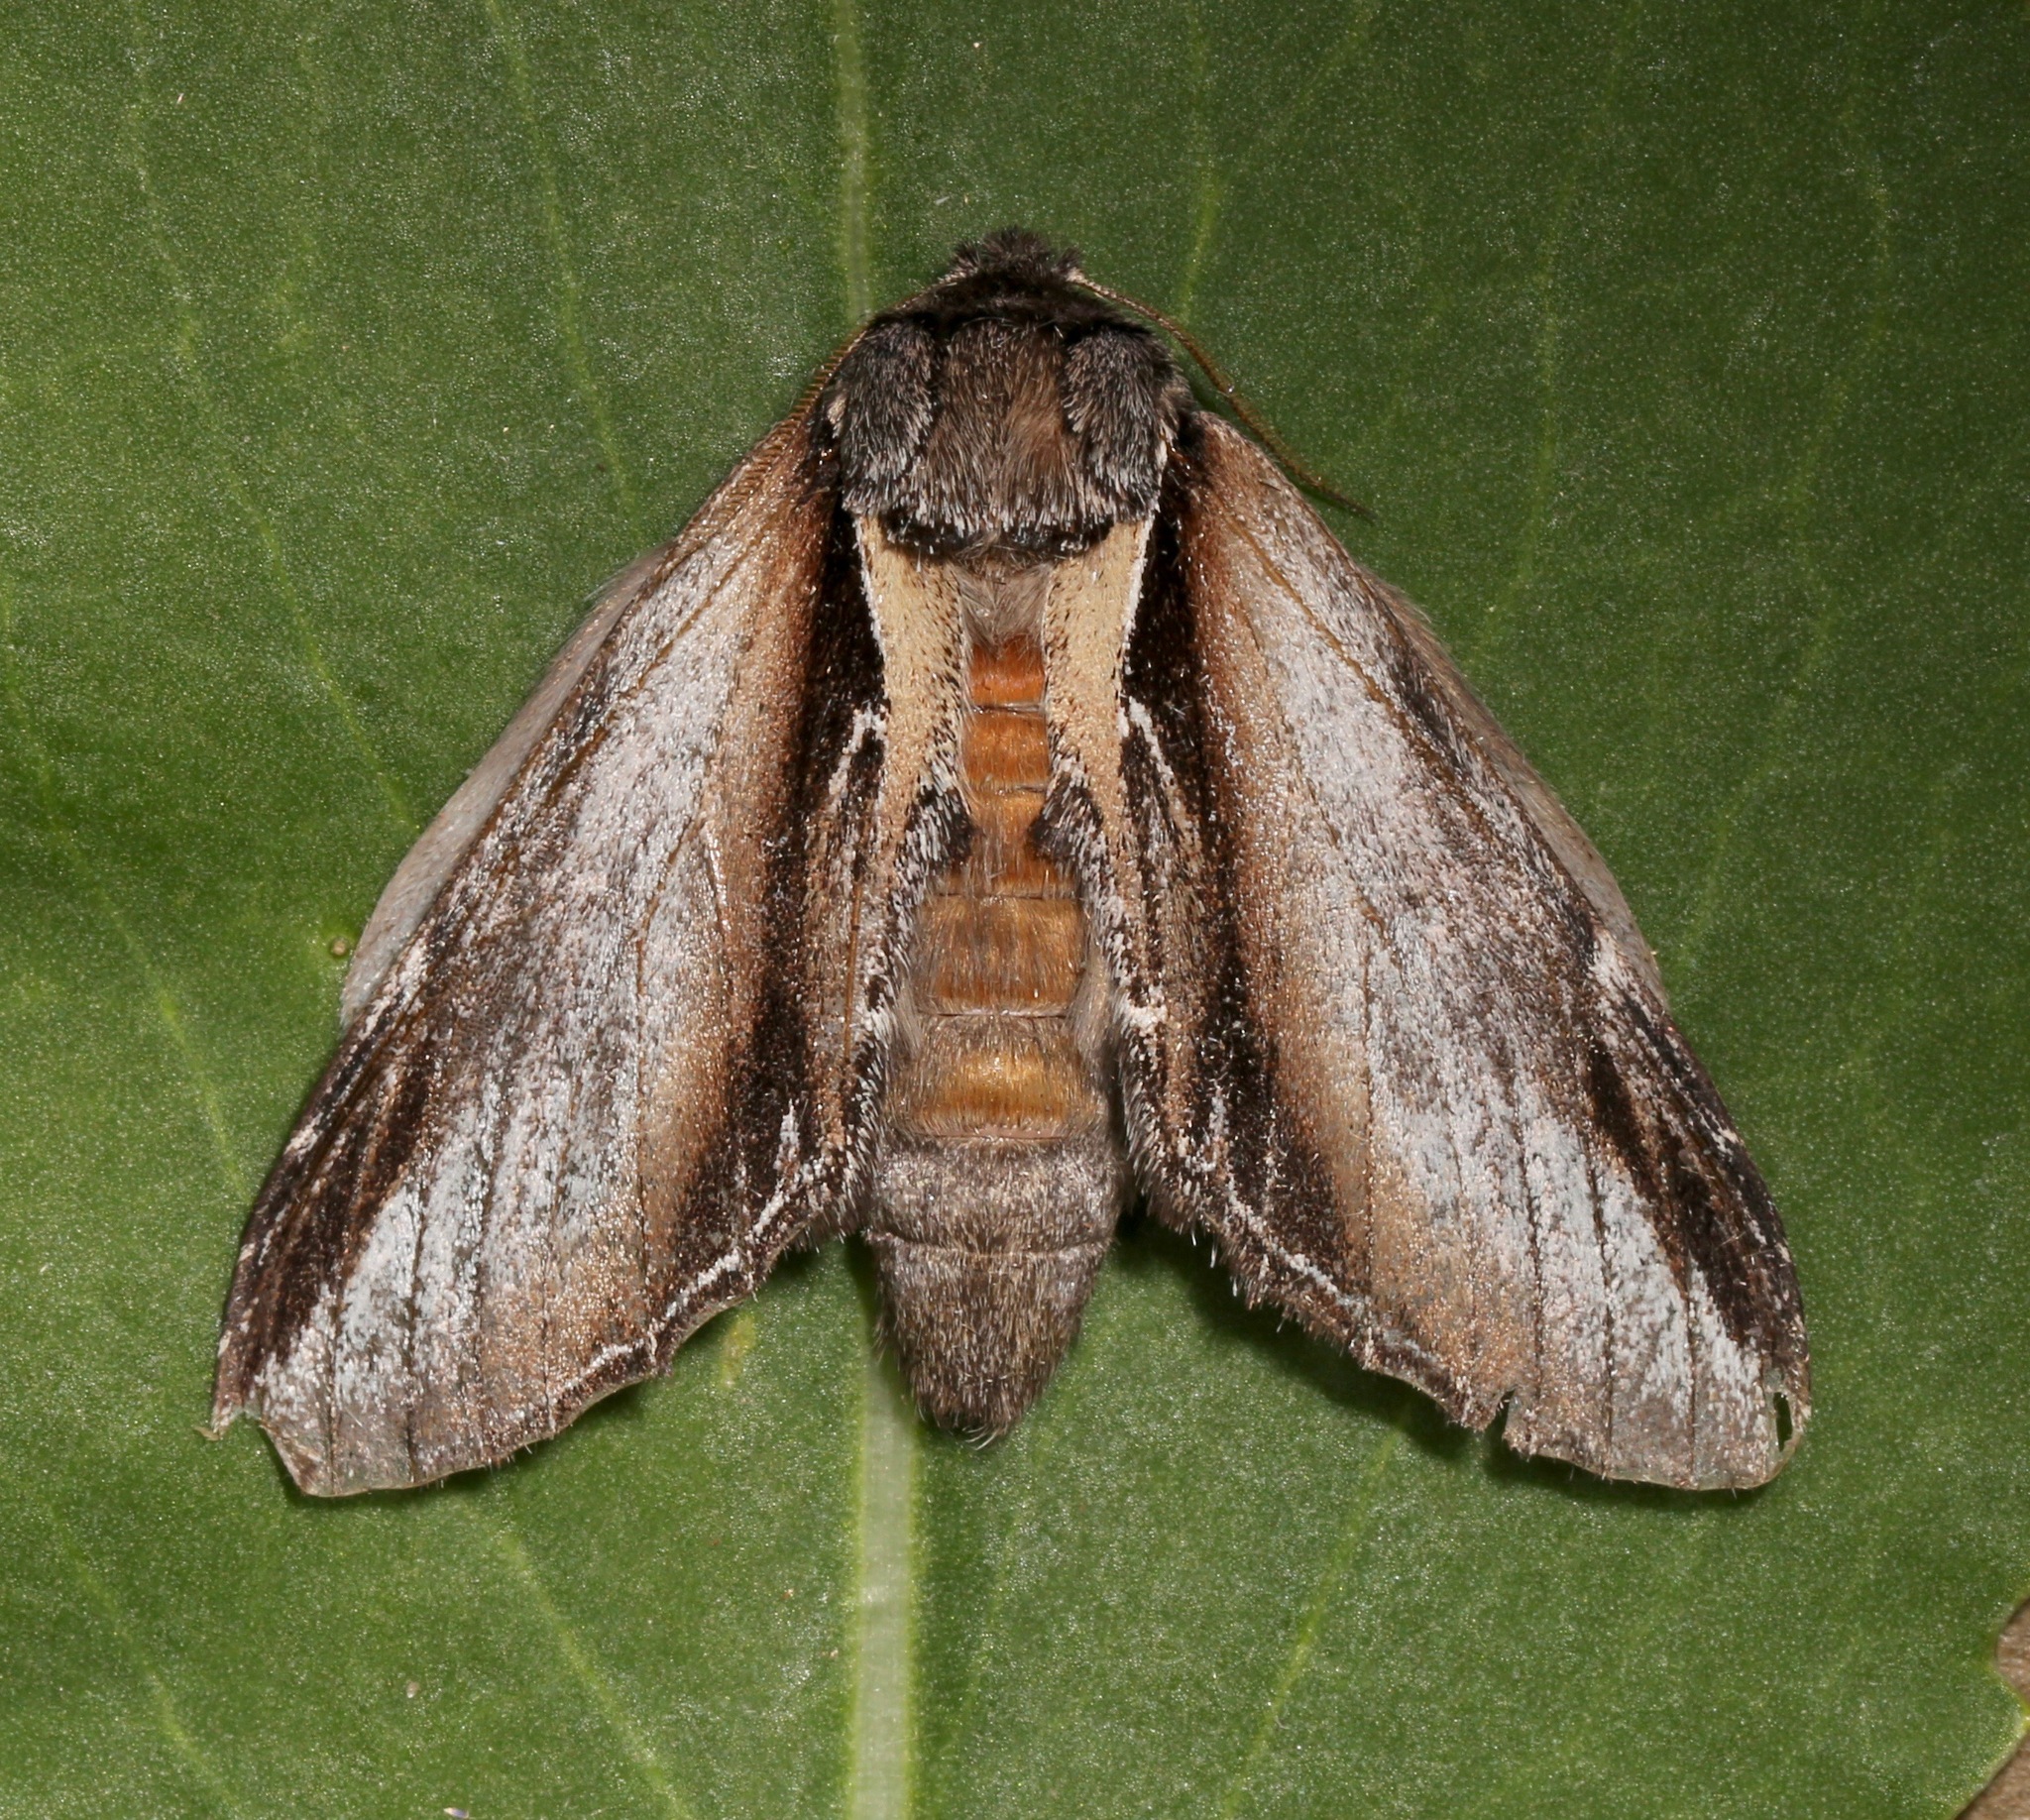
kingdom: Animalia
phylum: Arthropoda
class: Insecta
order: Lepidoptera
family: Notodontidae
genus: Pheosia
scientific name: Pheosia rimosa
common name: Black-rimmed prominent
